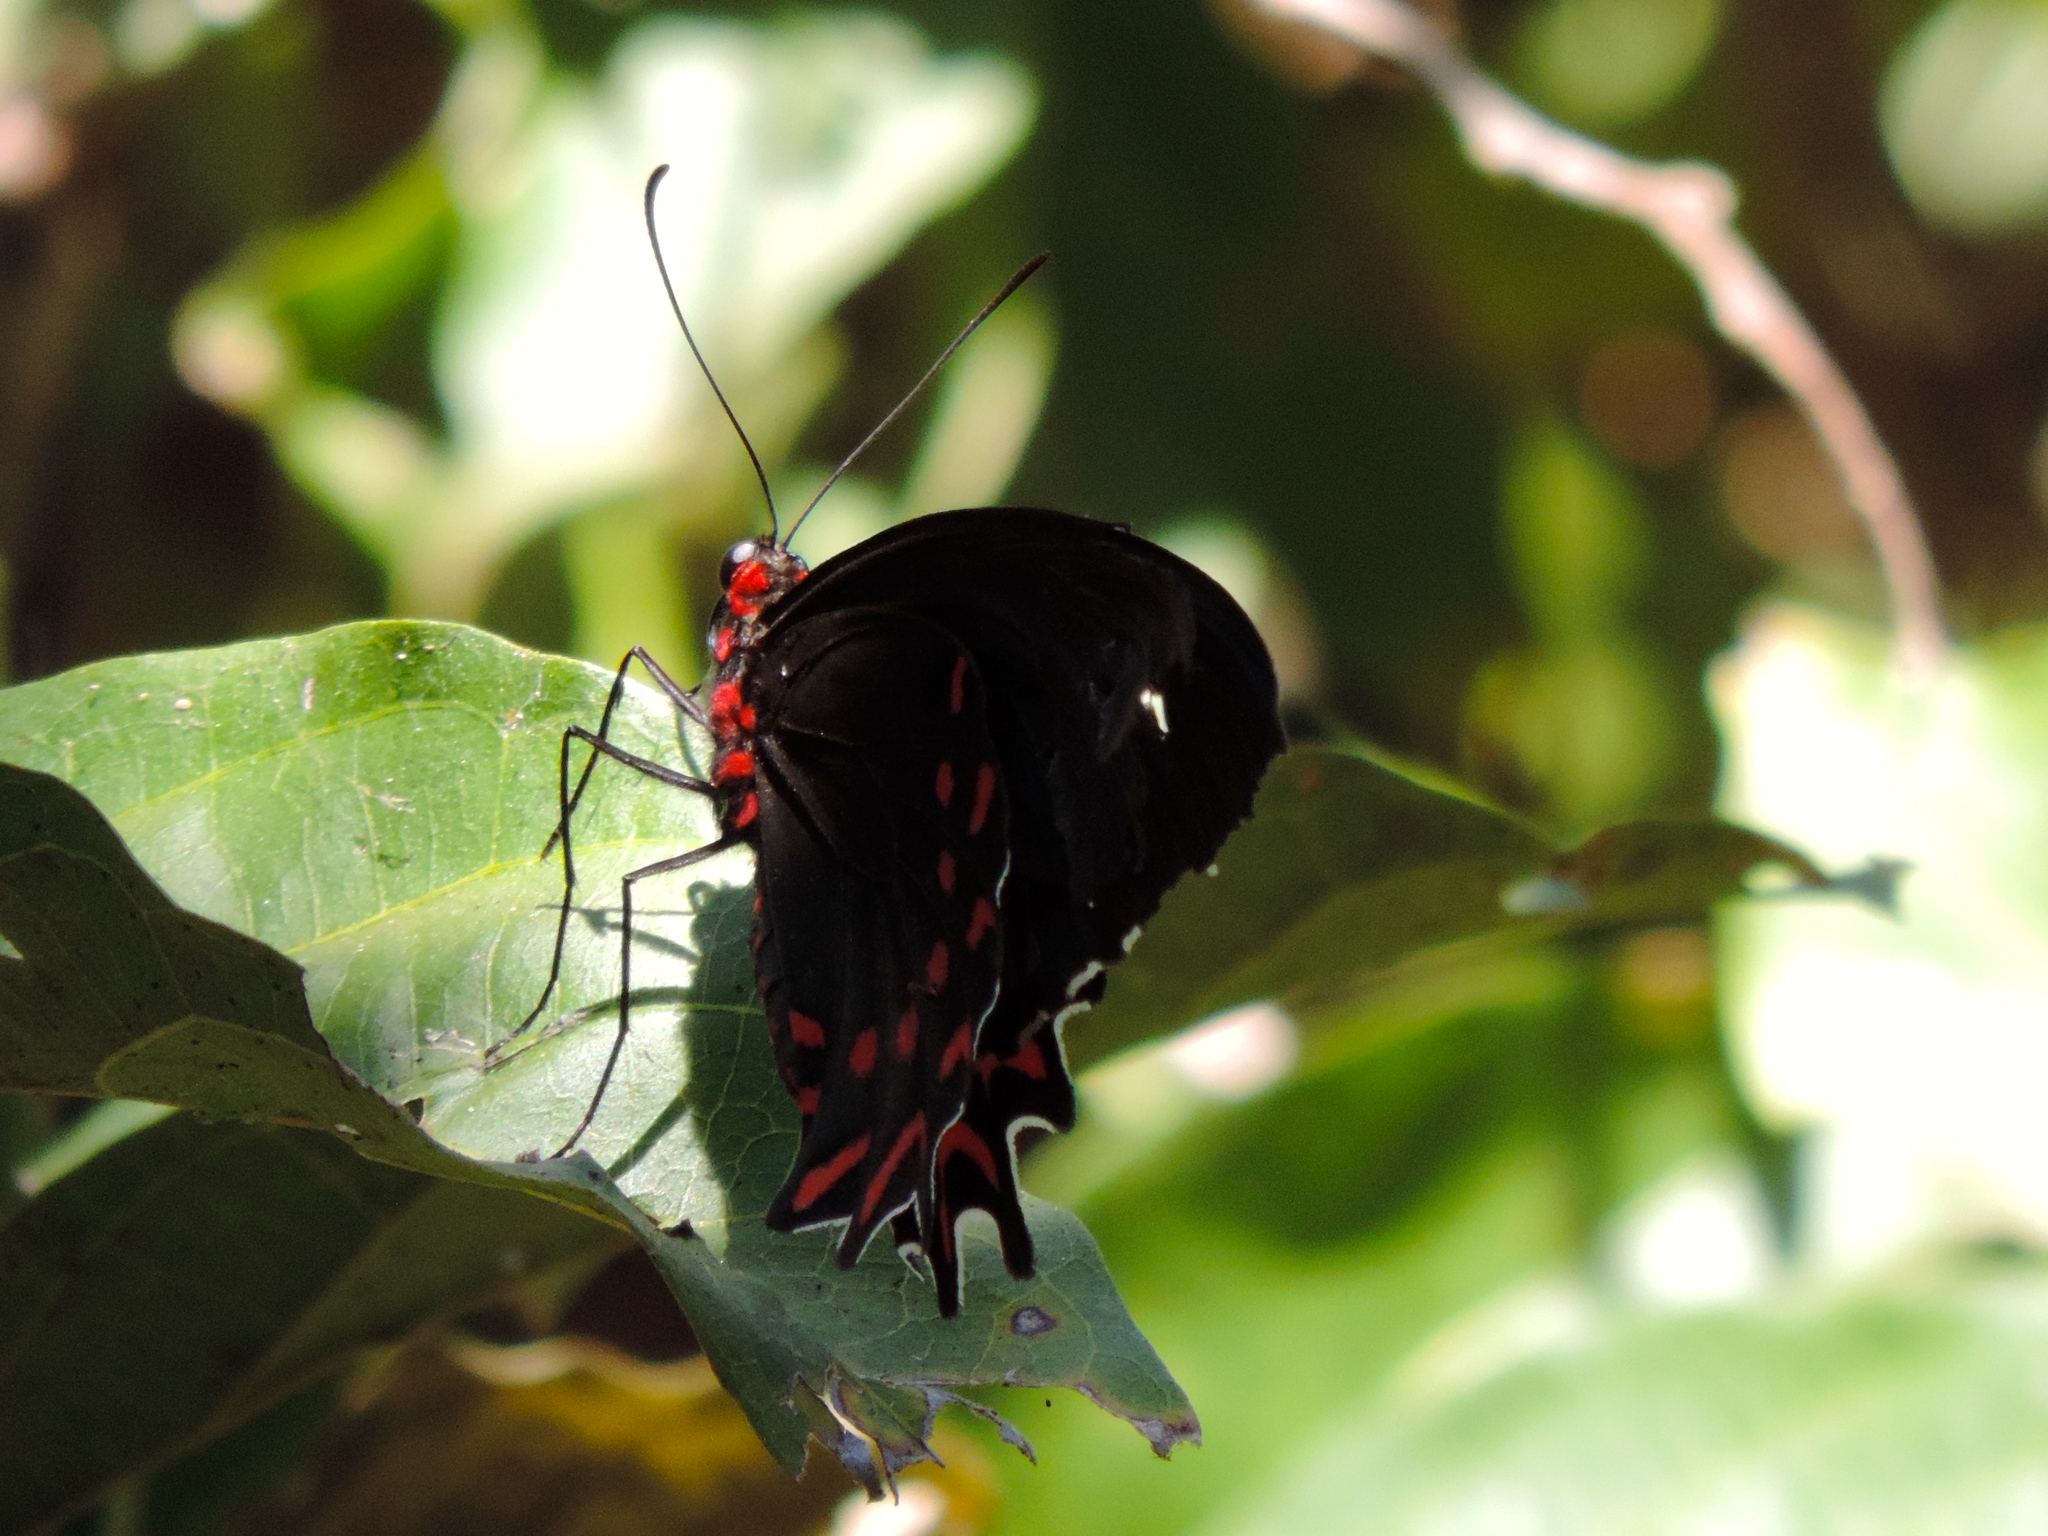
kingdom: Animalia
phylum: Arthropoda
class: Insecta
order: Lepidoptera
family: Papilionidae
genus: Parides
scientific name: Parides photinus
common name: Pink-spotted cattleheart
